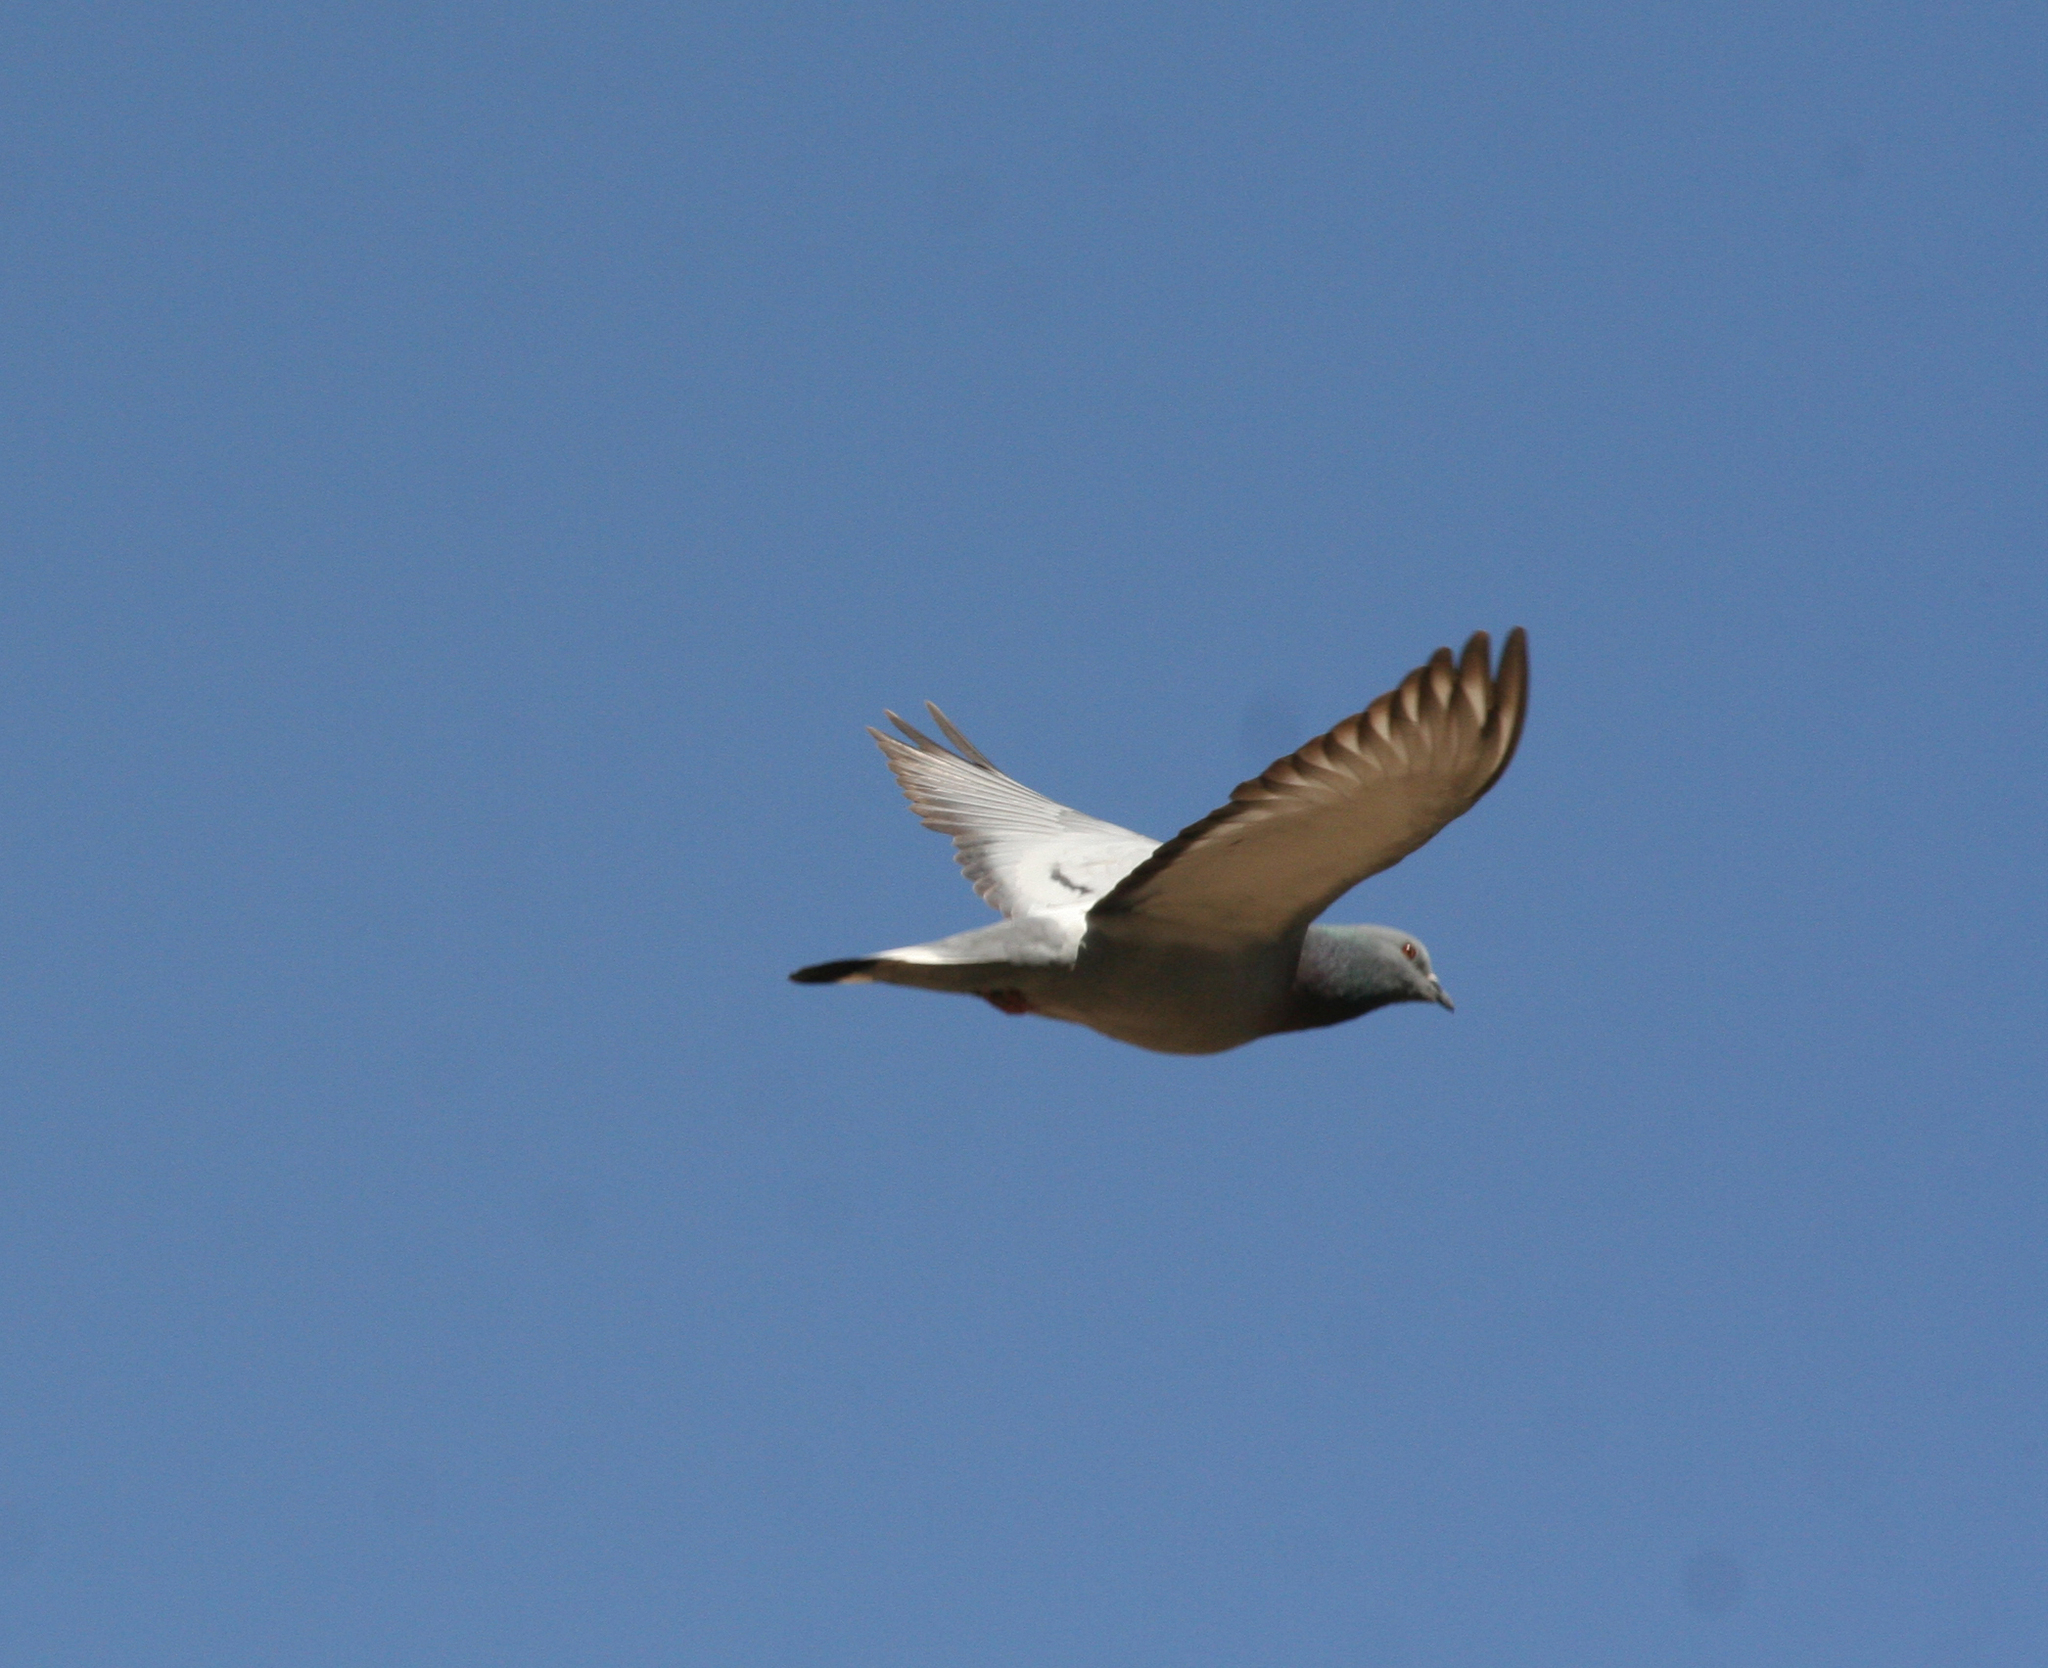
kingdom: Animalia
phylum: Chordata
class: Aves
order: Columbiformes
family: Columbidae
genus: Columba
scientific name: Columba rupestris
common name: Hill pigeon
